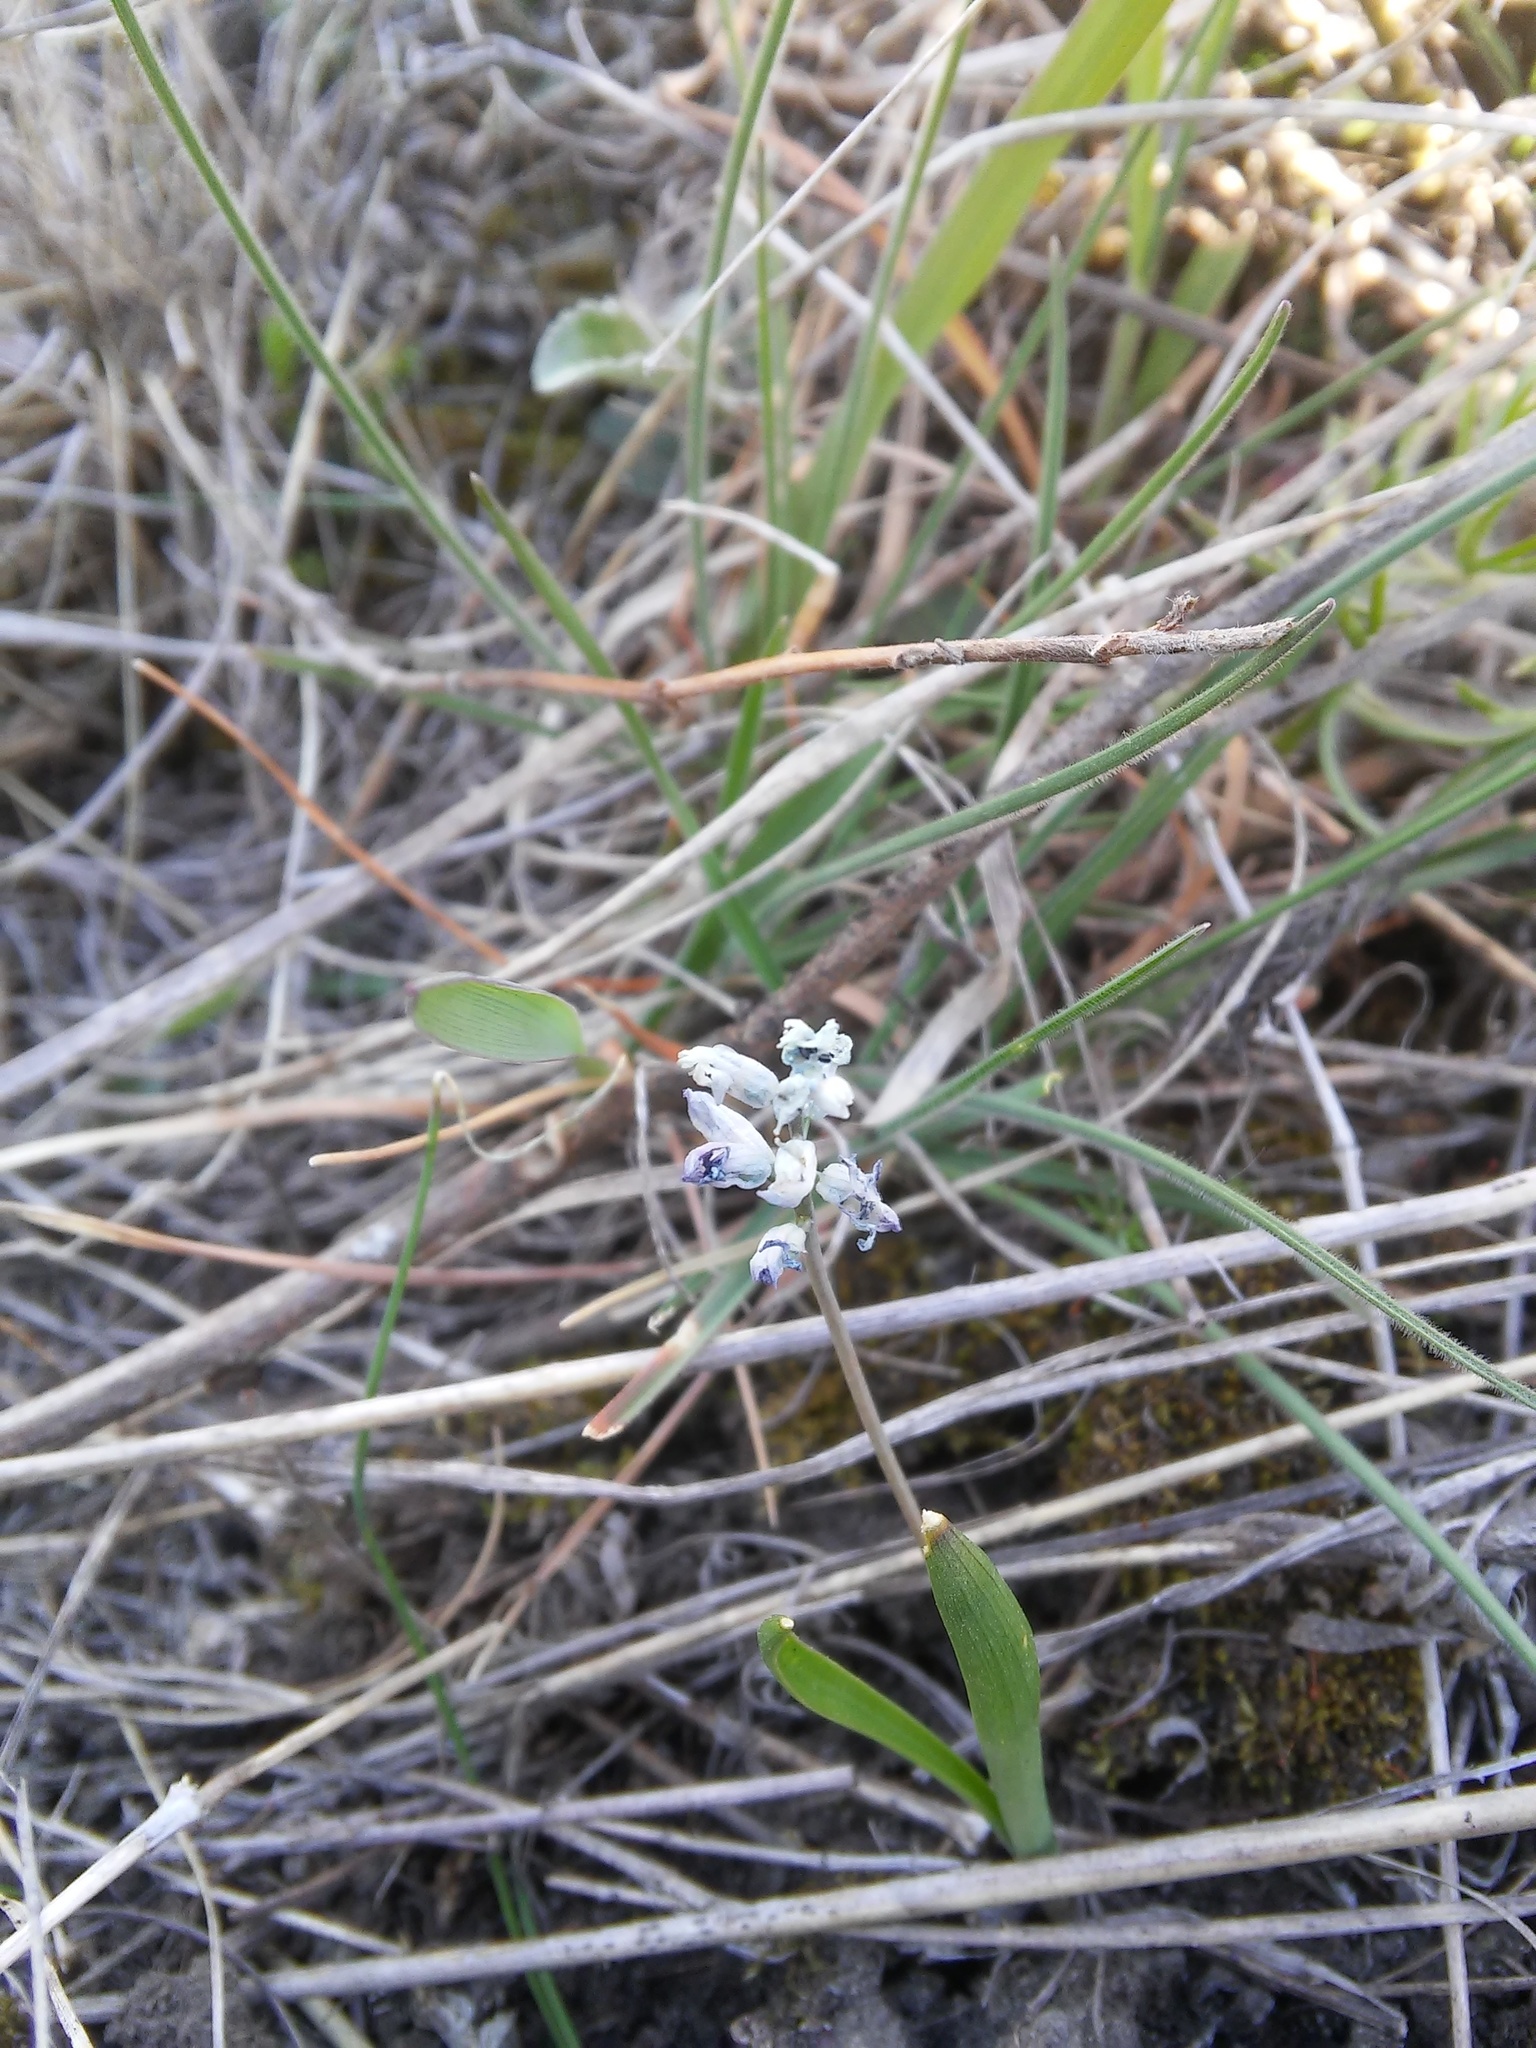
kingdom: Plantae
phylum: Tracheophyta
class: Liliopsida
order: Asparagales
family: Asparagaceae
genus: Hyacinthella
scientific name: Hyacinthella leucophaea
